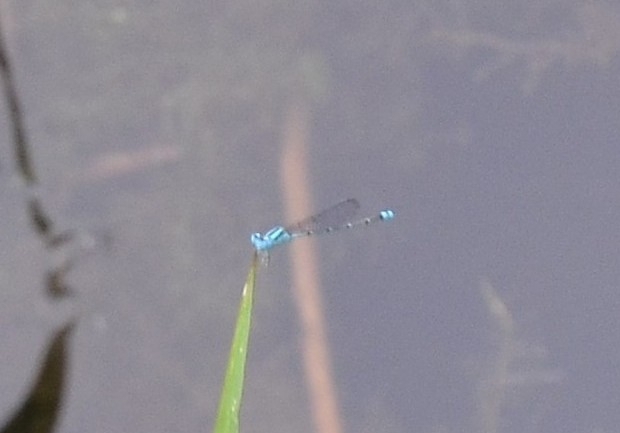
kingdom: Animalia
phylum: Arthropoda
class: Insecta
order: Odonata
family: Coenagrionidae
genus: Pseudagrion
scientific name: Pseudagrion microcephalum
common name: Blue riverdamsel
